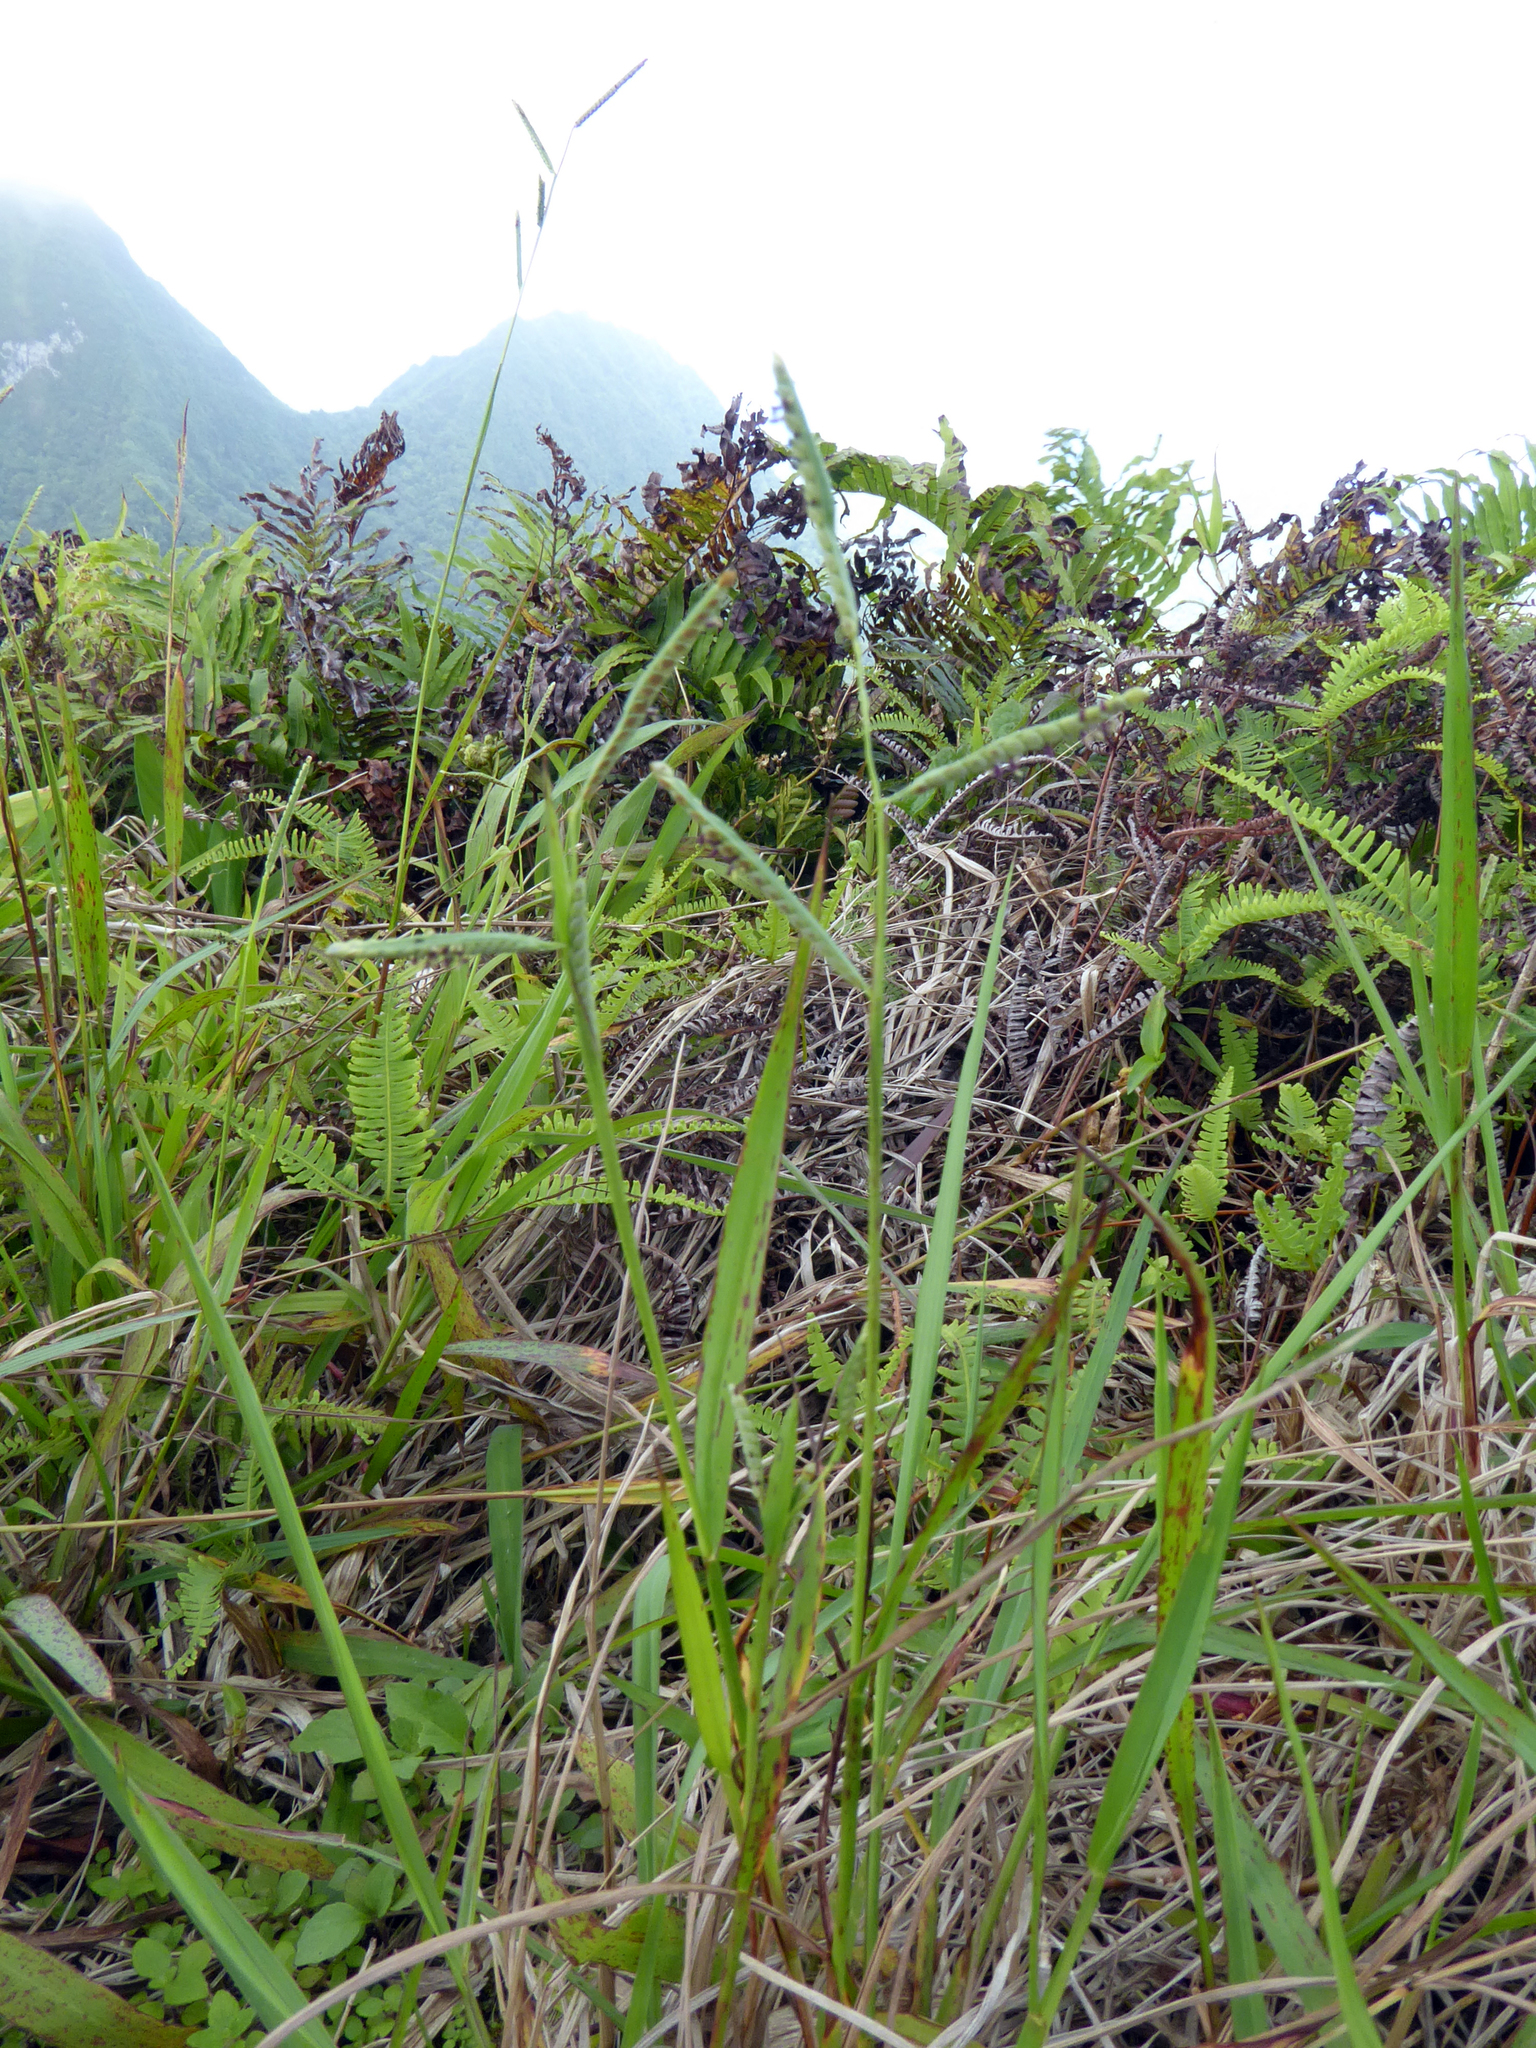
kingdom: Plantae
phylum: Tracheophyta
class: Liliopsida
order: Poales
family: Poaceae
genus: Paspalum
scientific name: Paspalum orbiculare
